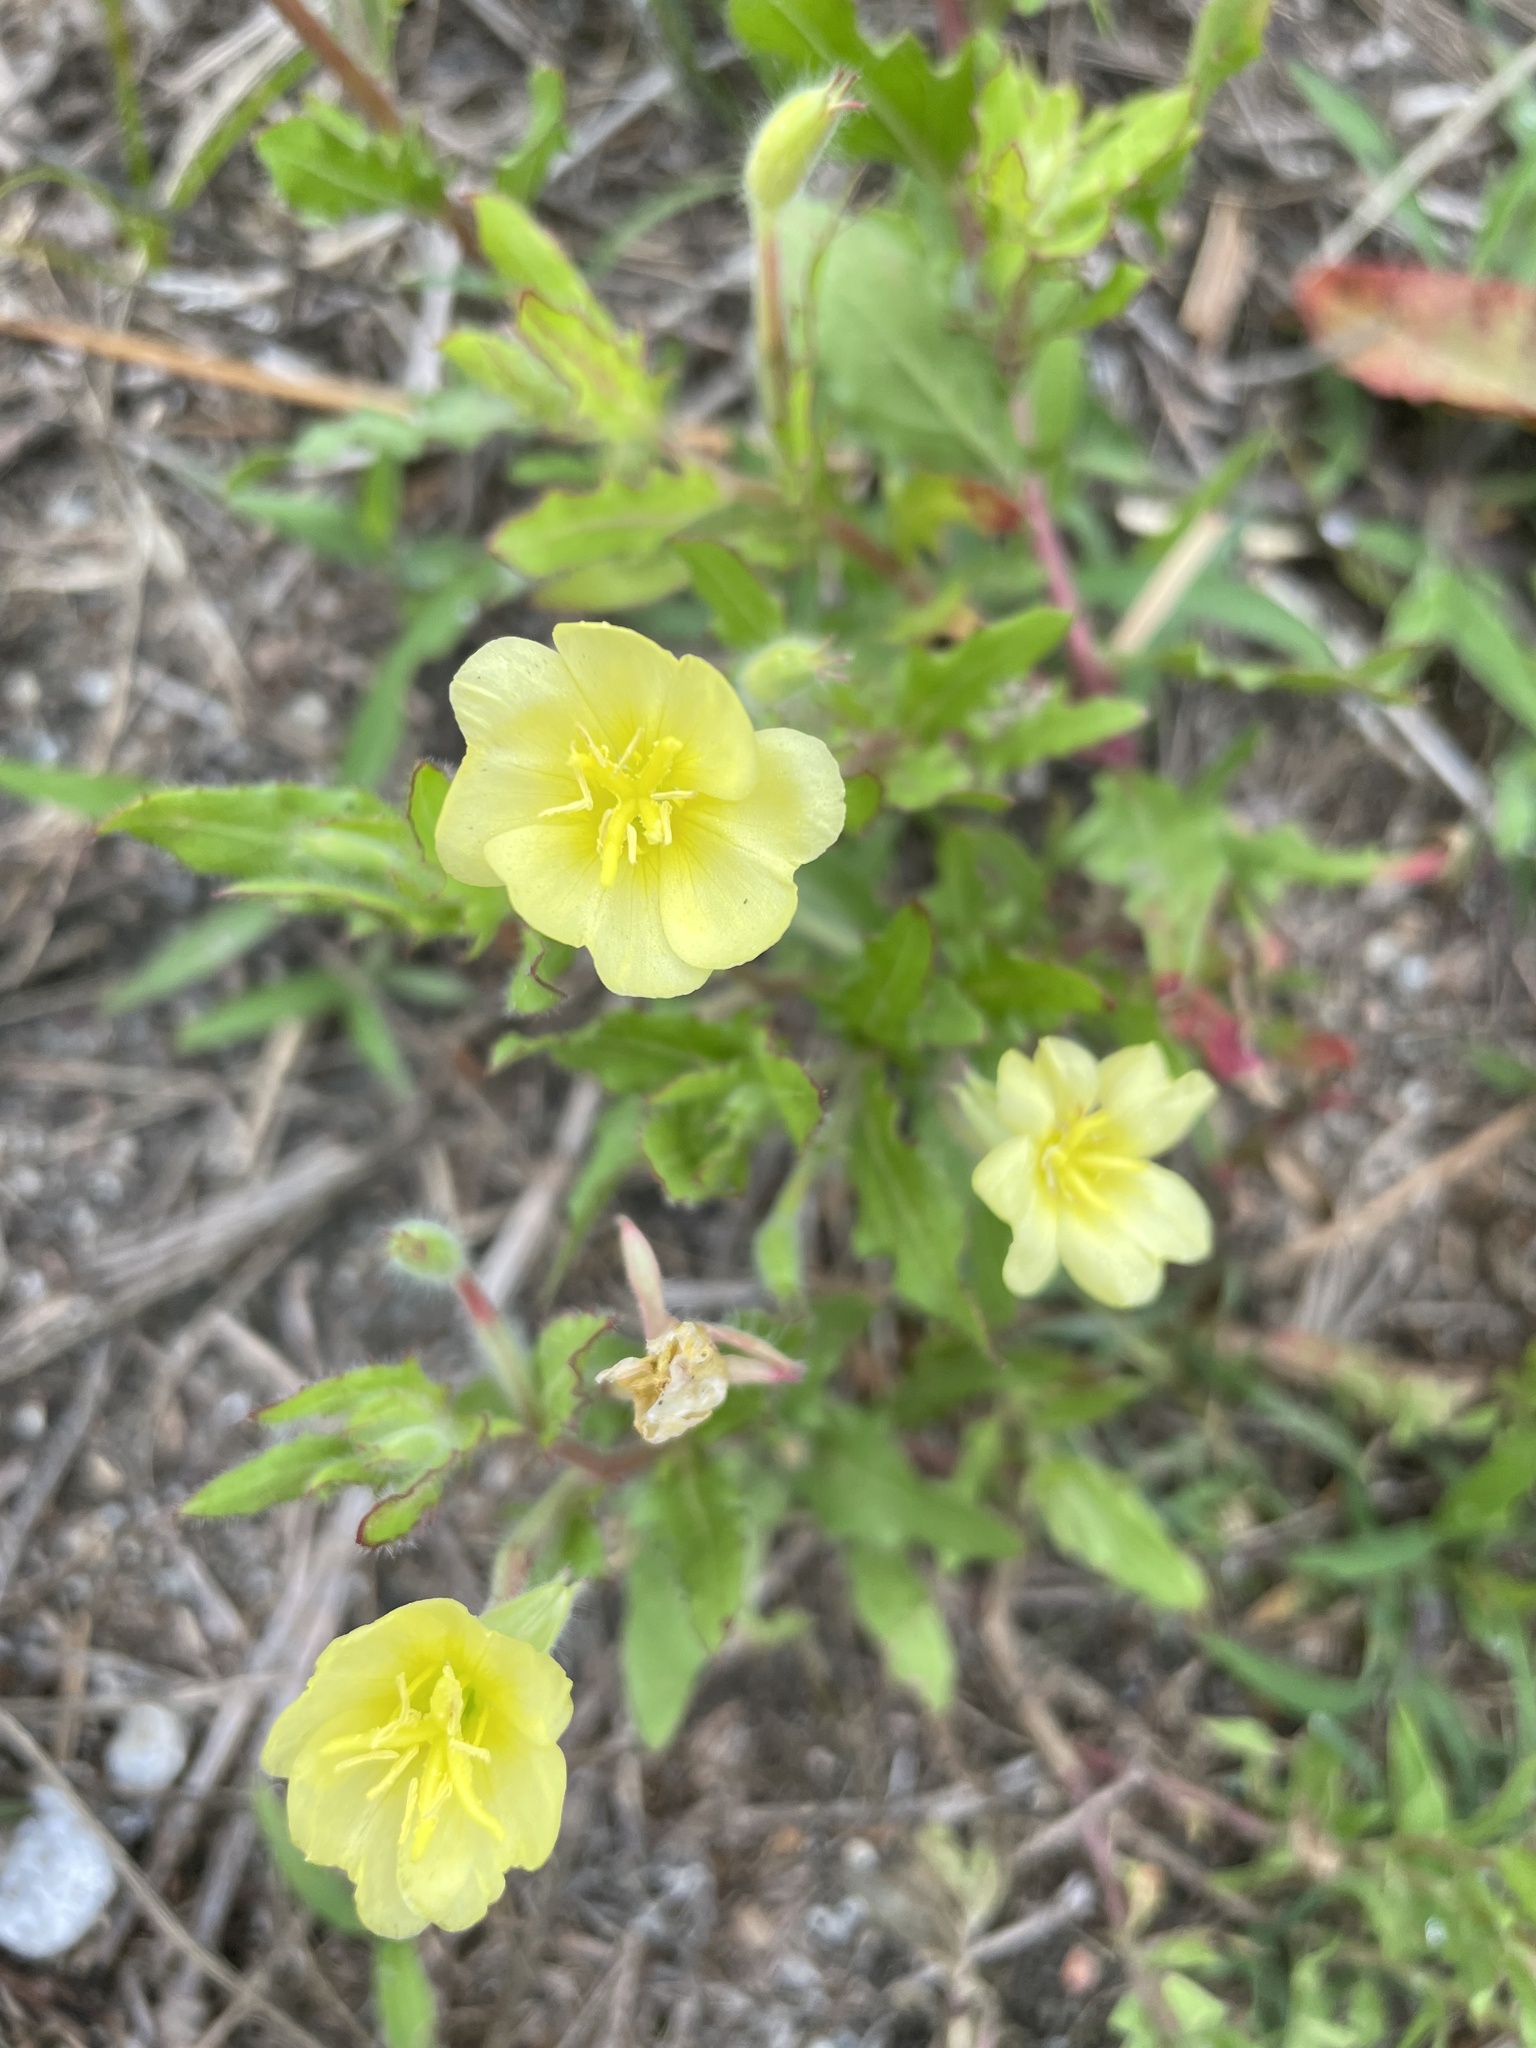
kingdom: Plantae
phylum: Tracheophyta
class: Magnoliopsida
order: Myrtales
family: Onagraceae
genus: Oenothera
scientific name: Oenothera laciniata
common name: Cut-leaved evening-primrose
